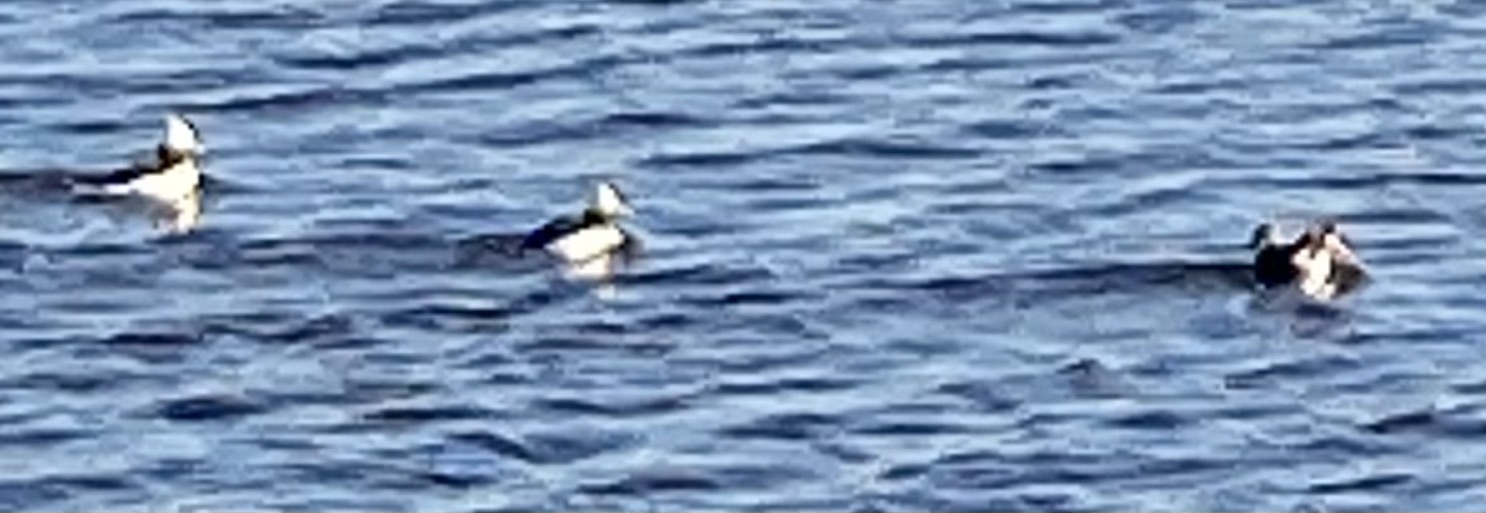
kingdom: Animalia
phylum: Chordata
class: Aves
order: Anseriformes
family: Anatidae
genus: Bucephala
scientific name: Bucephala albeola
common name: Bufflehead
